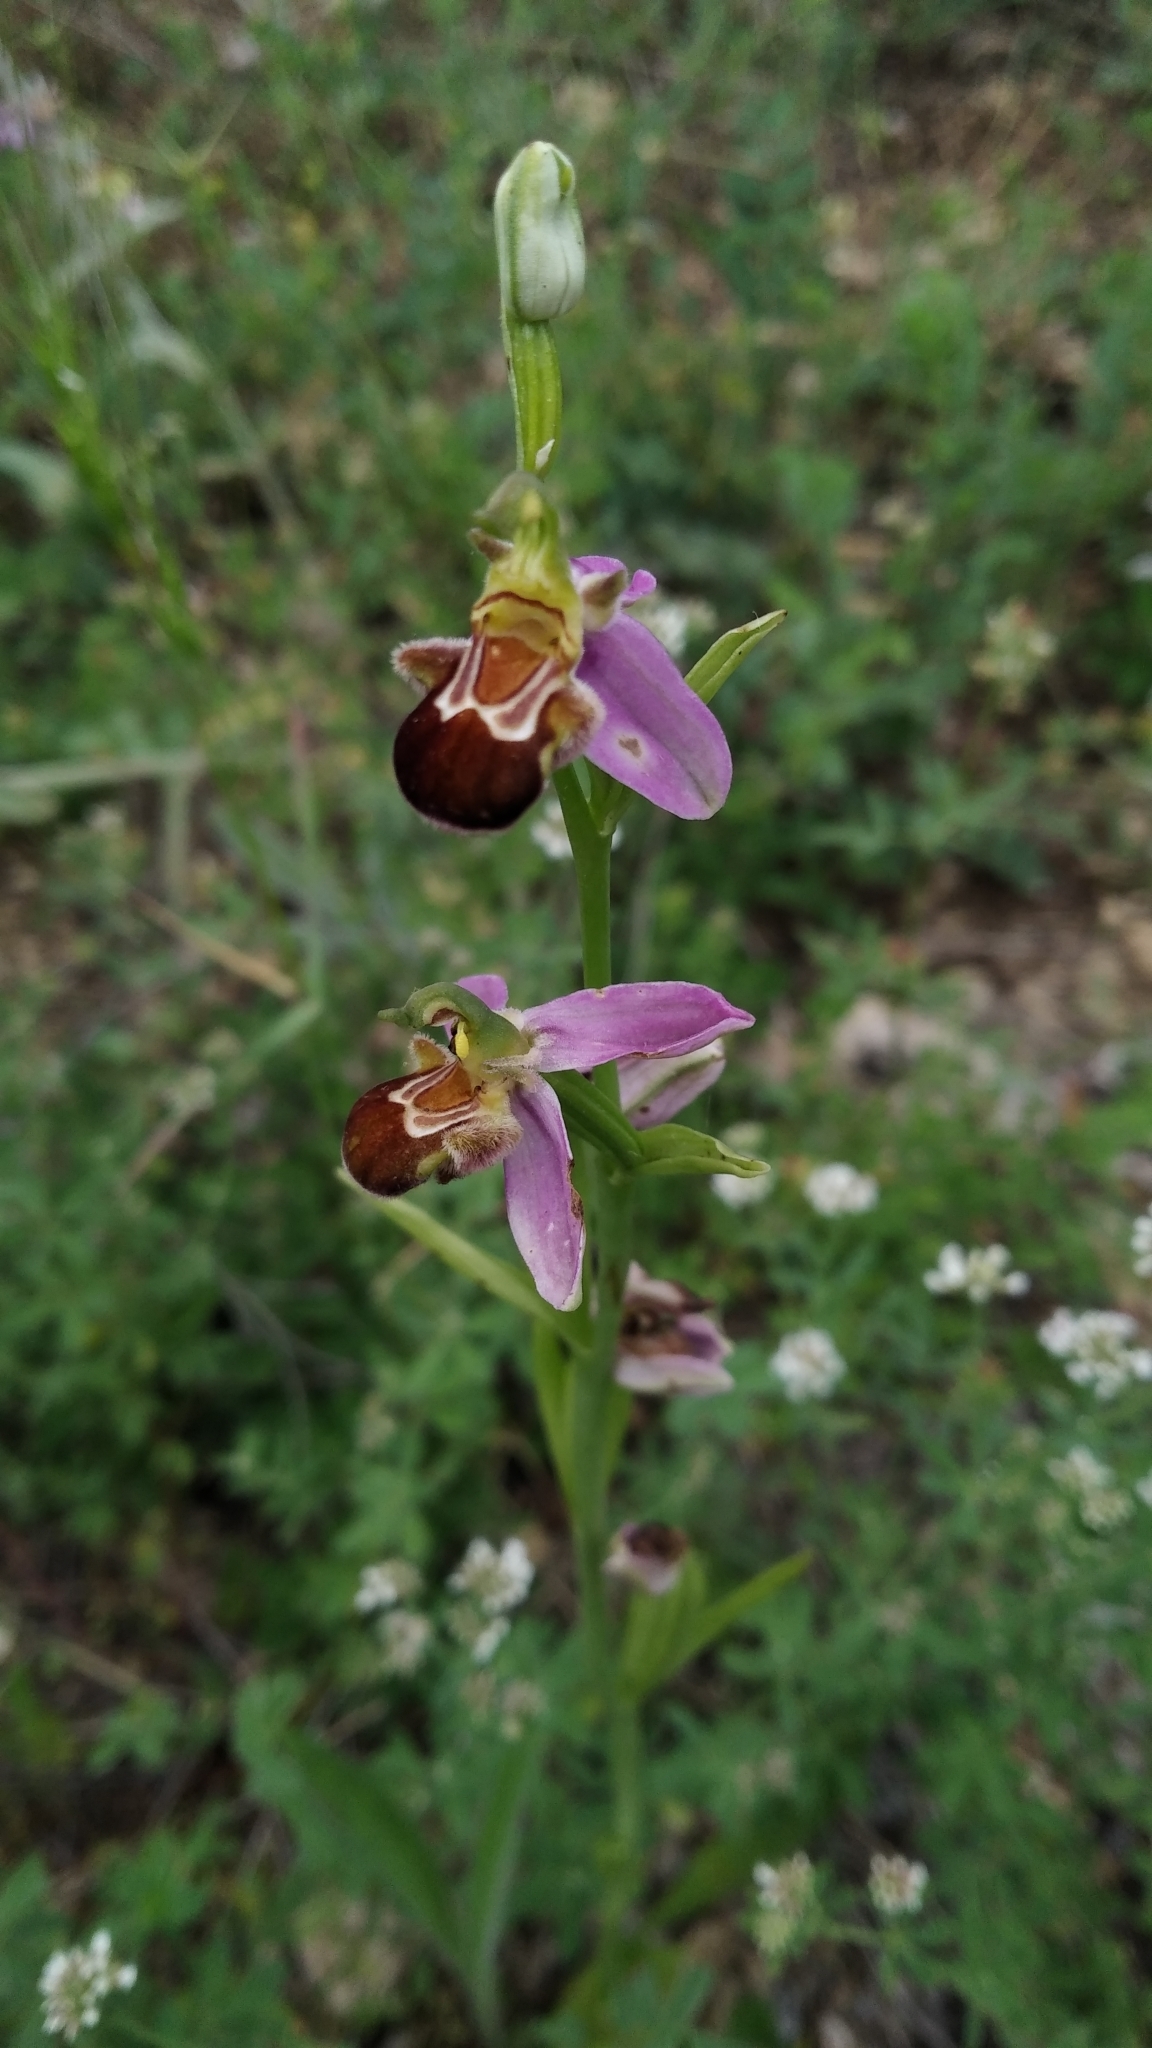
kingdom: Plantae
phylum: Tracheophyta
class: Liliopsida
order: Asparagales
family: Orchidaceae
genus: Ophrys
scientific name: Ophrys apifera
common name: Bee orchid
